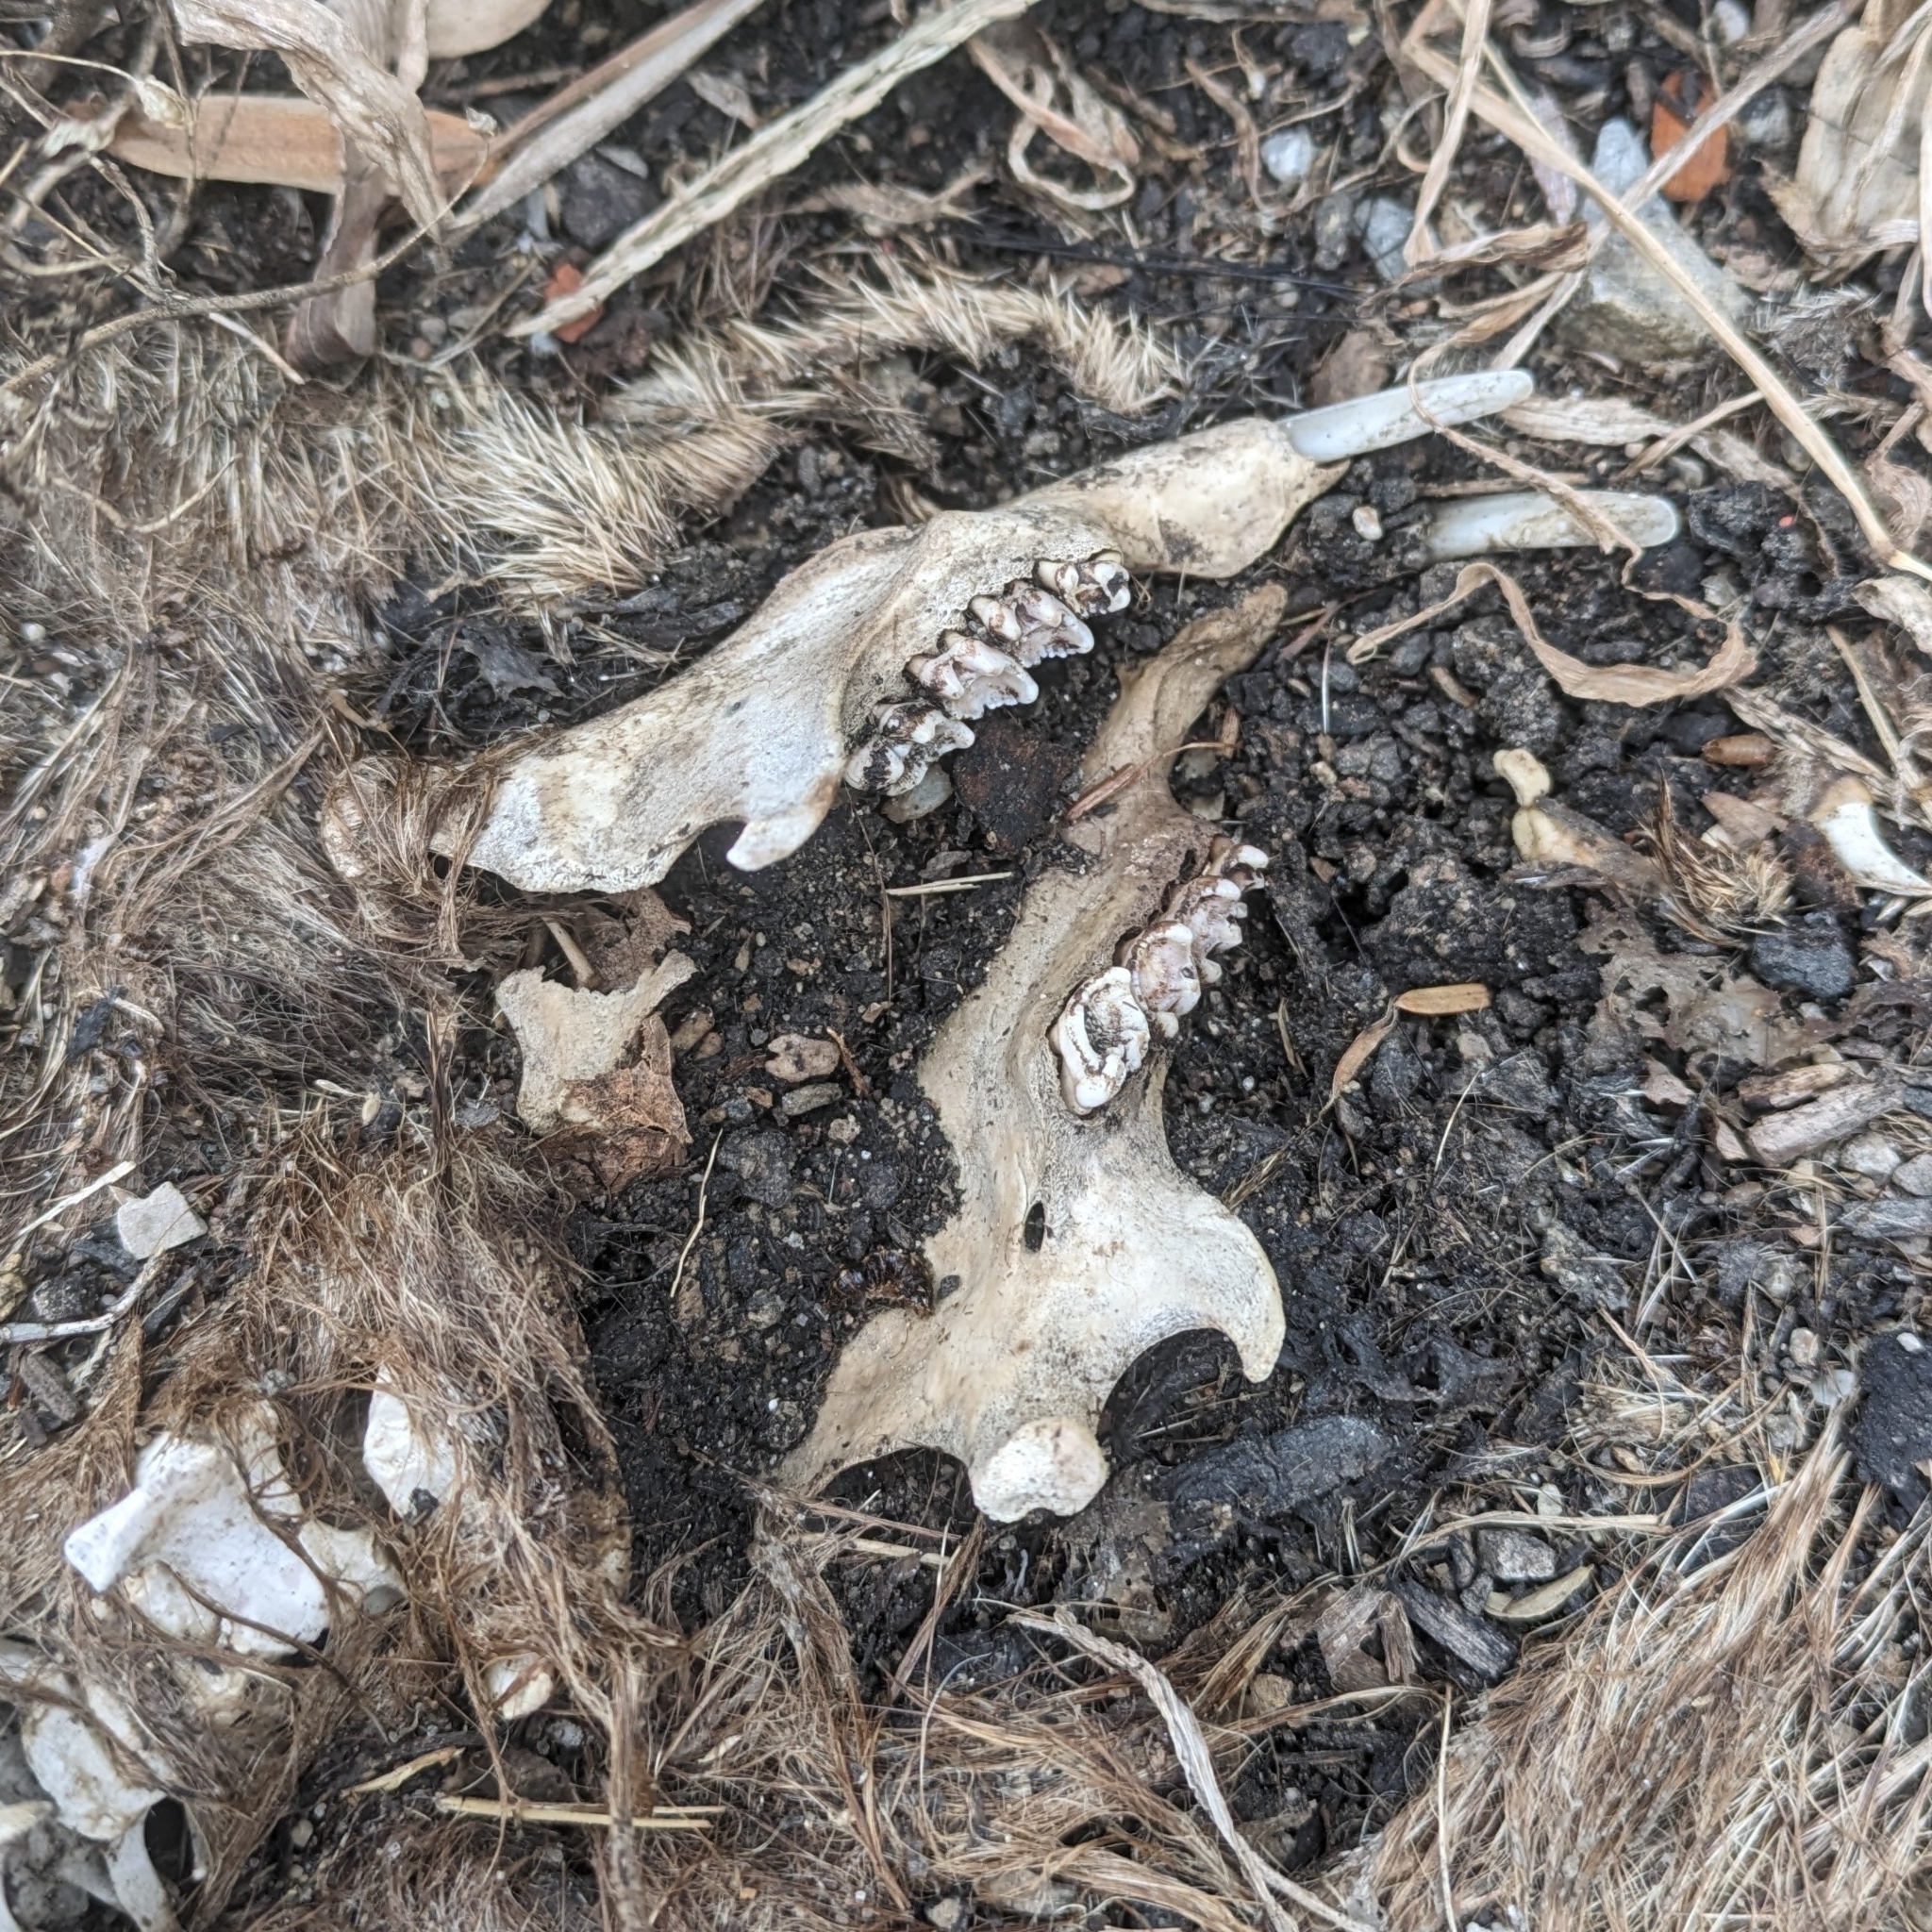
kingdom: Animalia
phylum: Chordata
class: Mammalia
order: Rodentia
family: Sciuridae
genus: Marmota
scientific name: Marmota monax
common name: Groundhog
